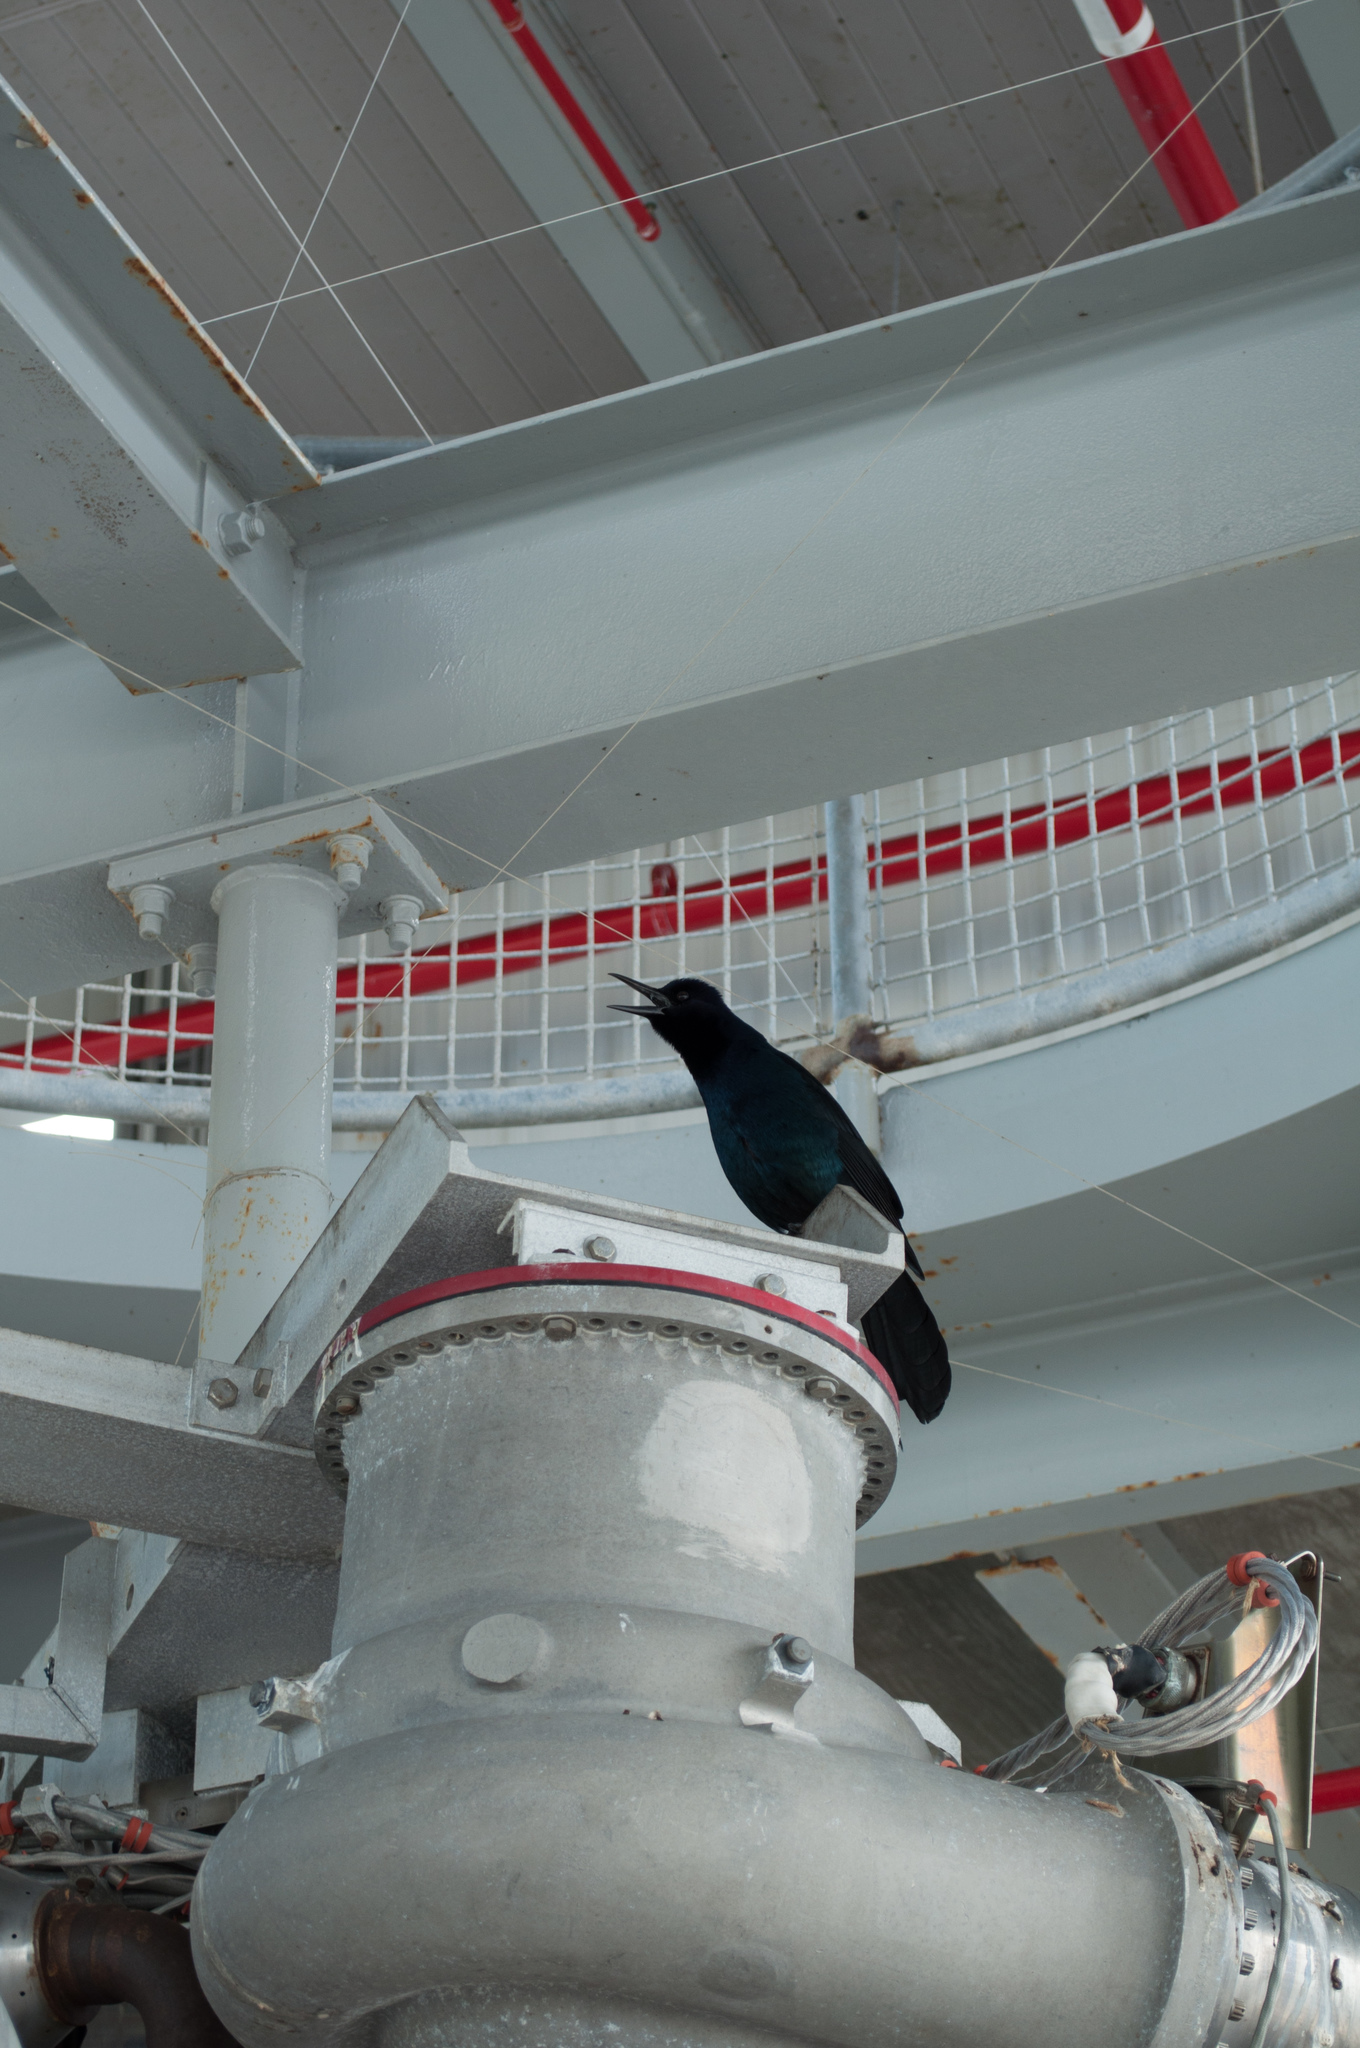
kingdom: Animalia
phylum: Chordata
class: Aves
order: Passeriformes
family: Icteridae
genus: Quiscalus
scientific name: Quiscalus major
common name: Boat-tailed grackle
